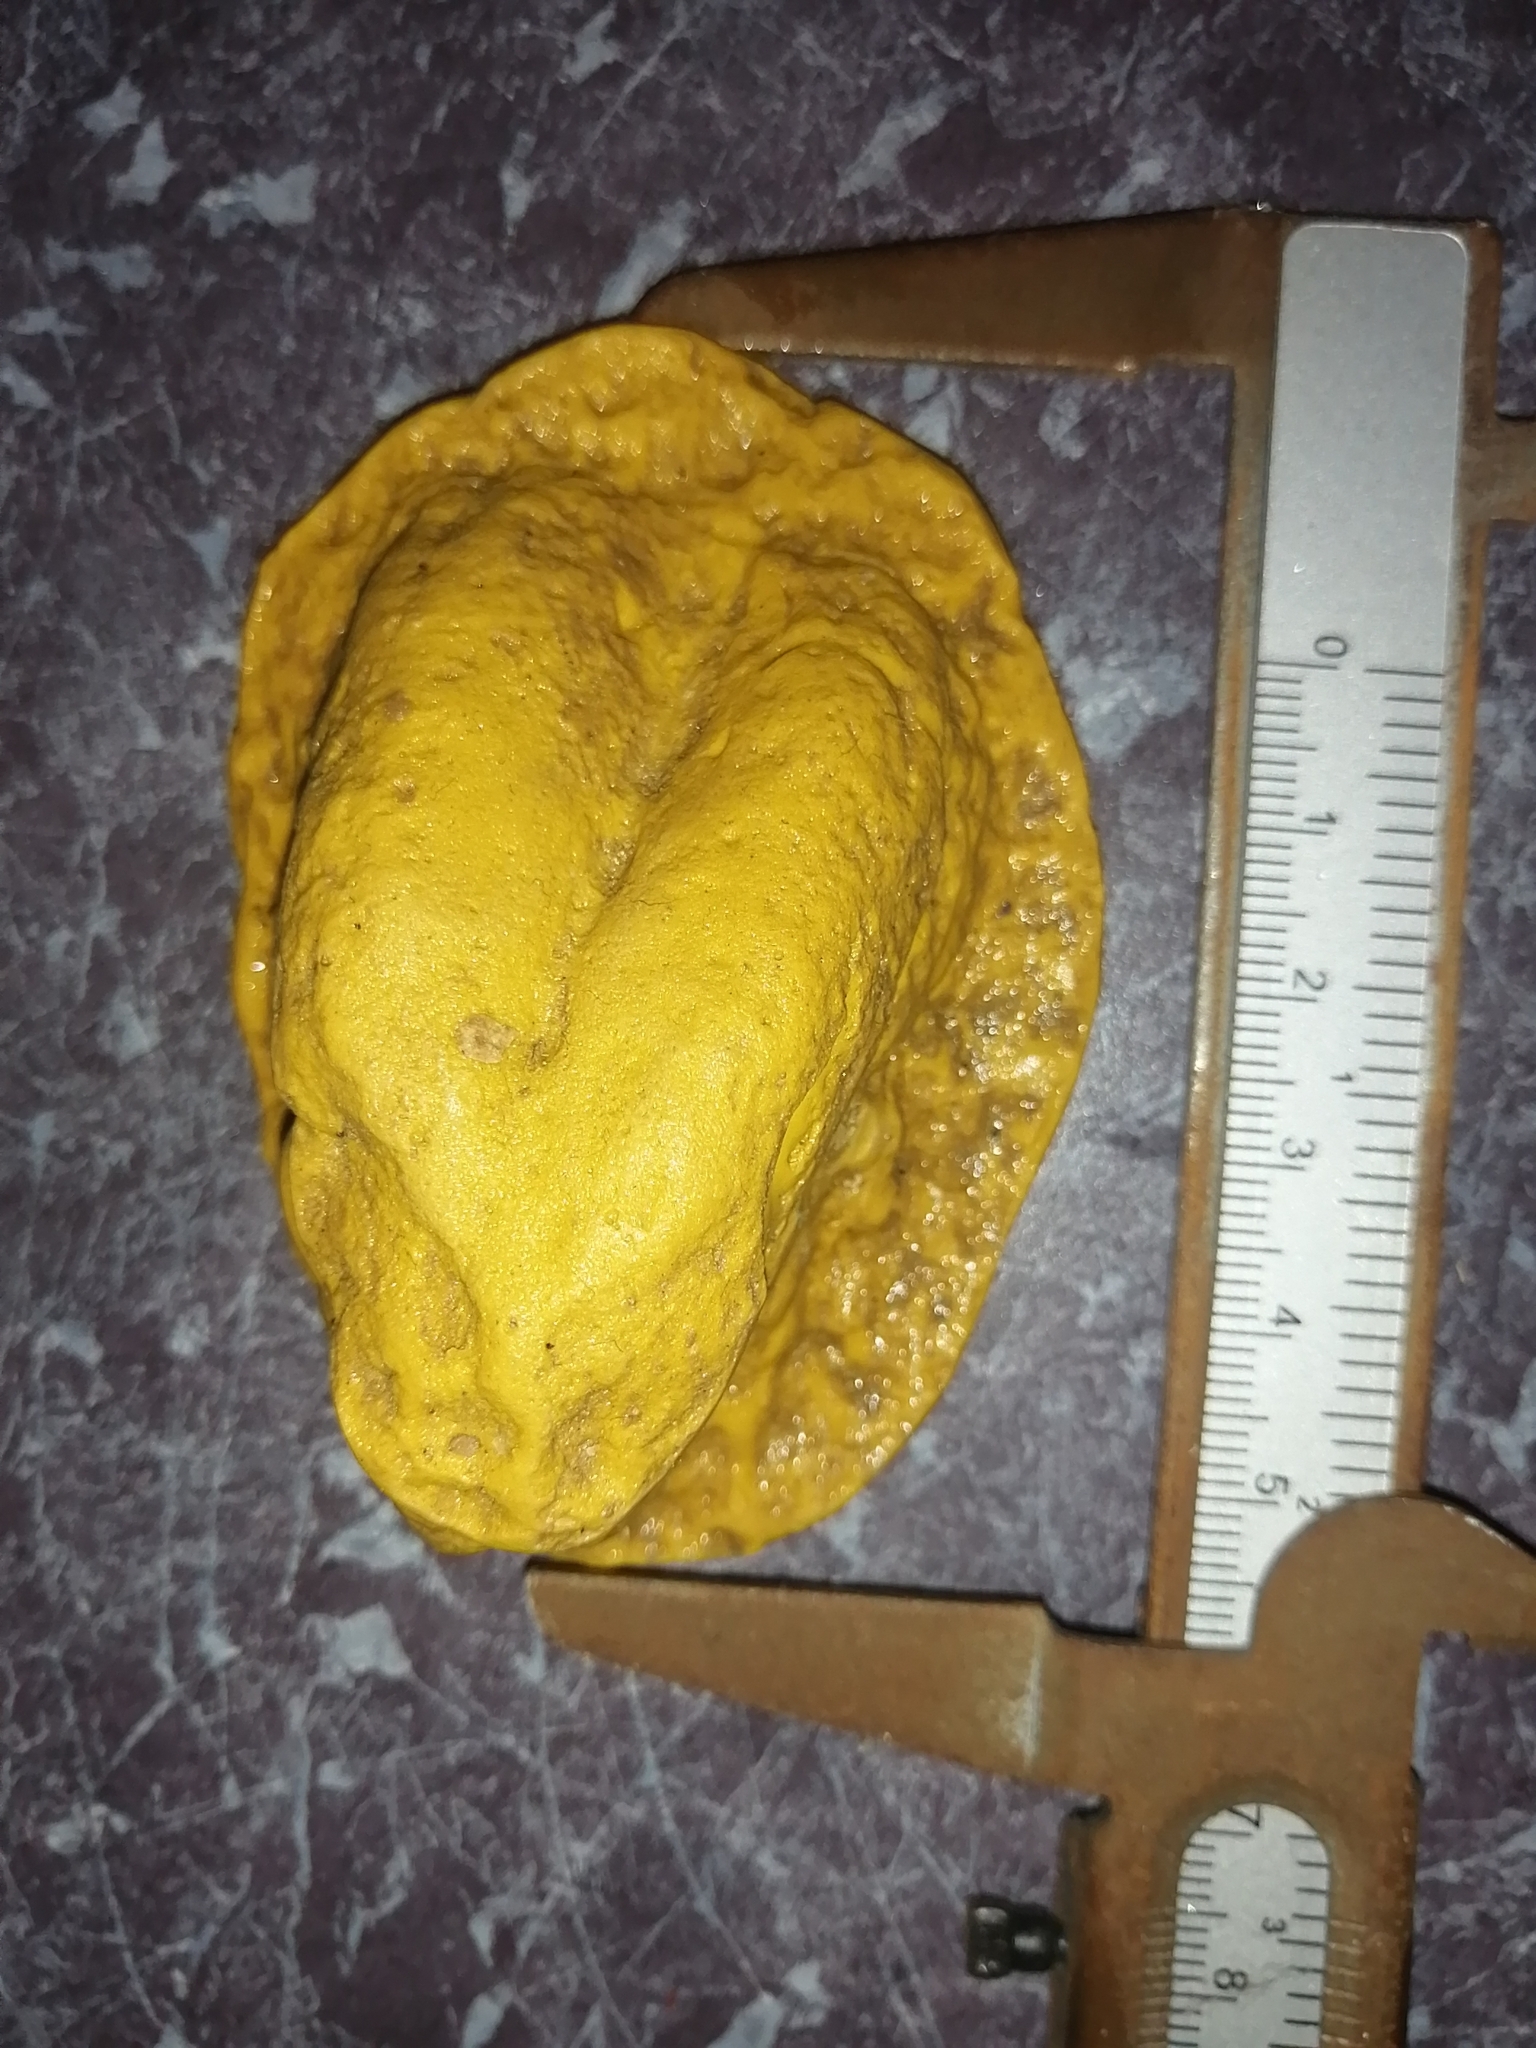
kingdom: Animalia
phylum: Chordata
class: Mammalia
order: Artiodactyla
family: Cervidae
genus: Odocoileus
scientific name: Odocoileus virginianus
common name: White-tailed deer
